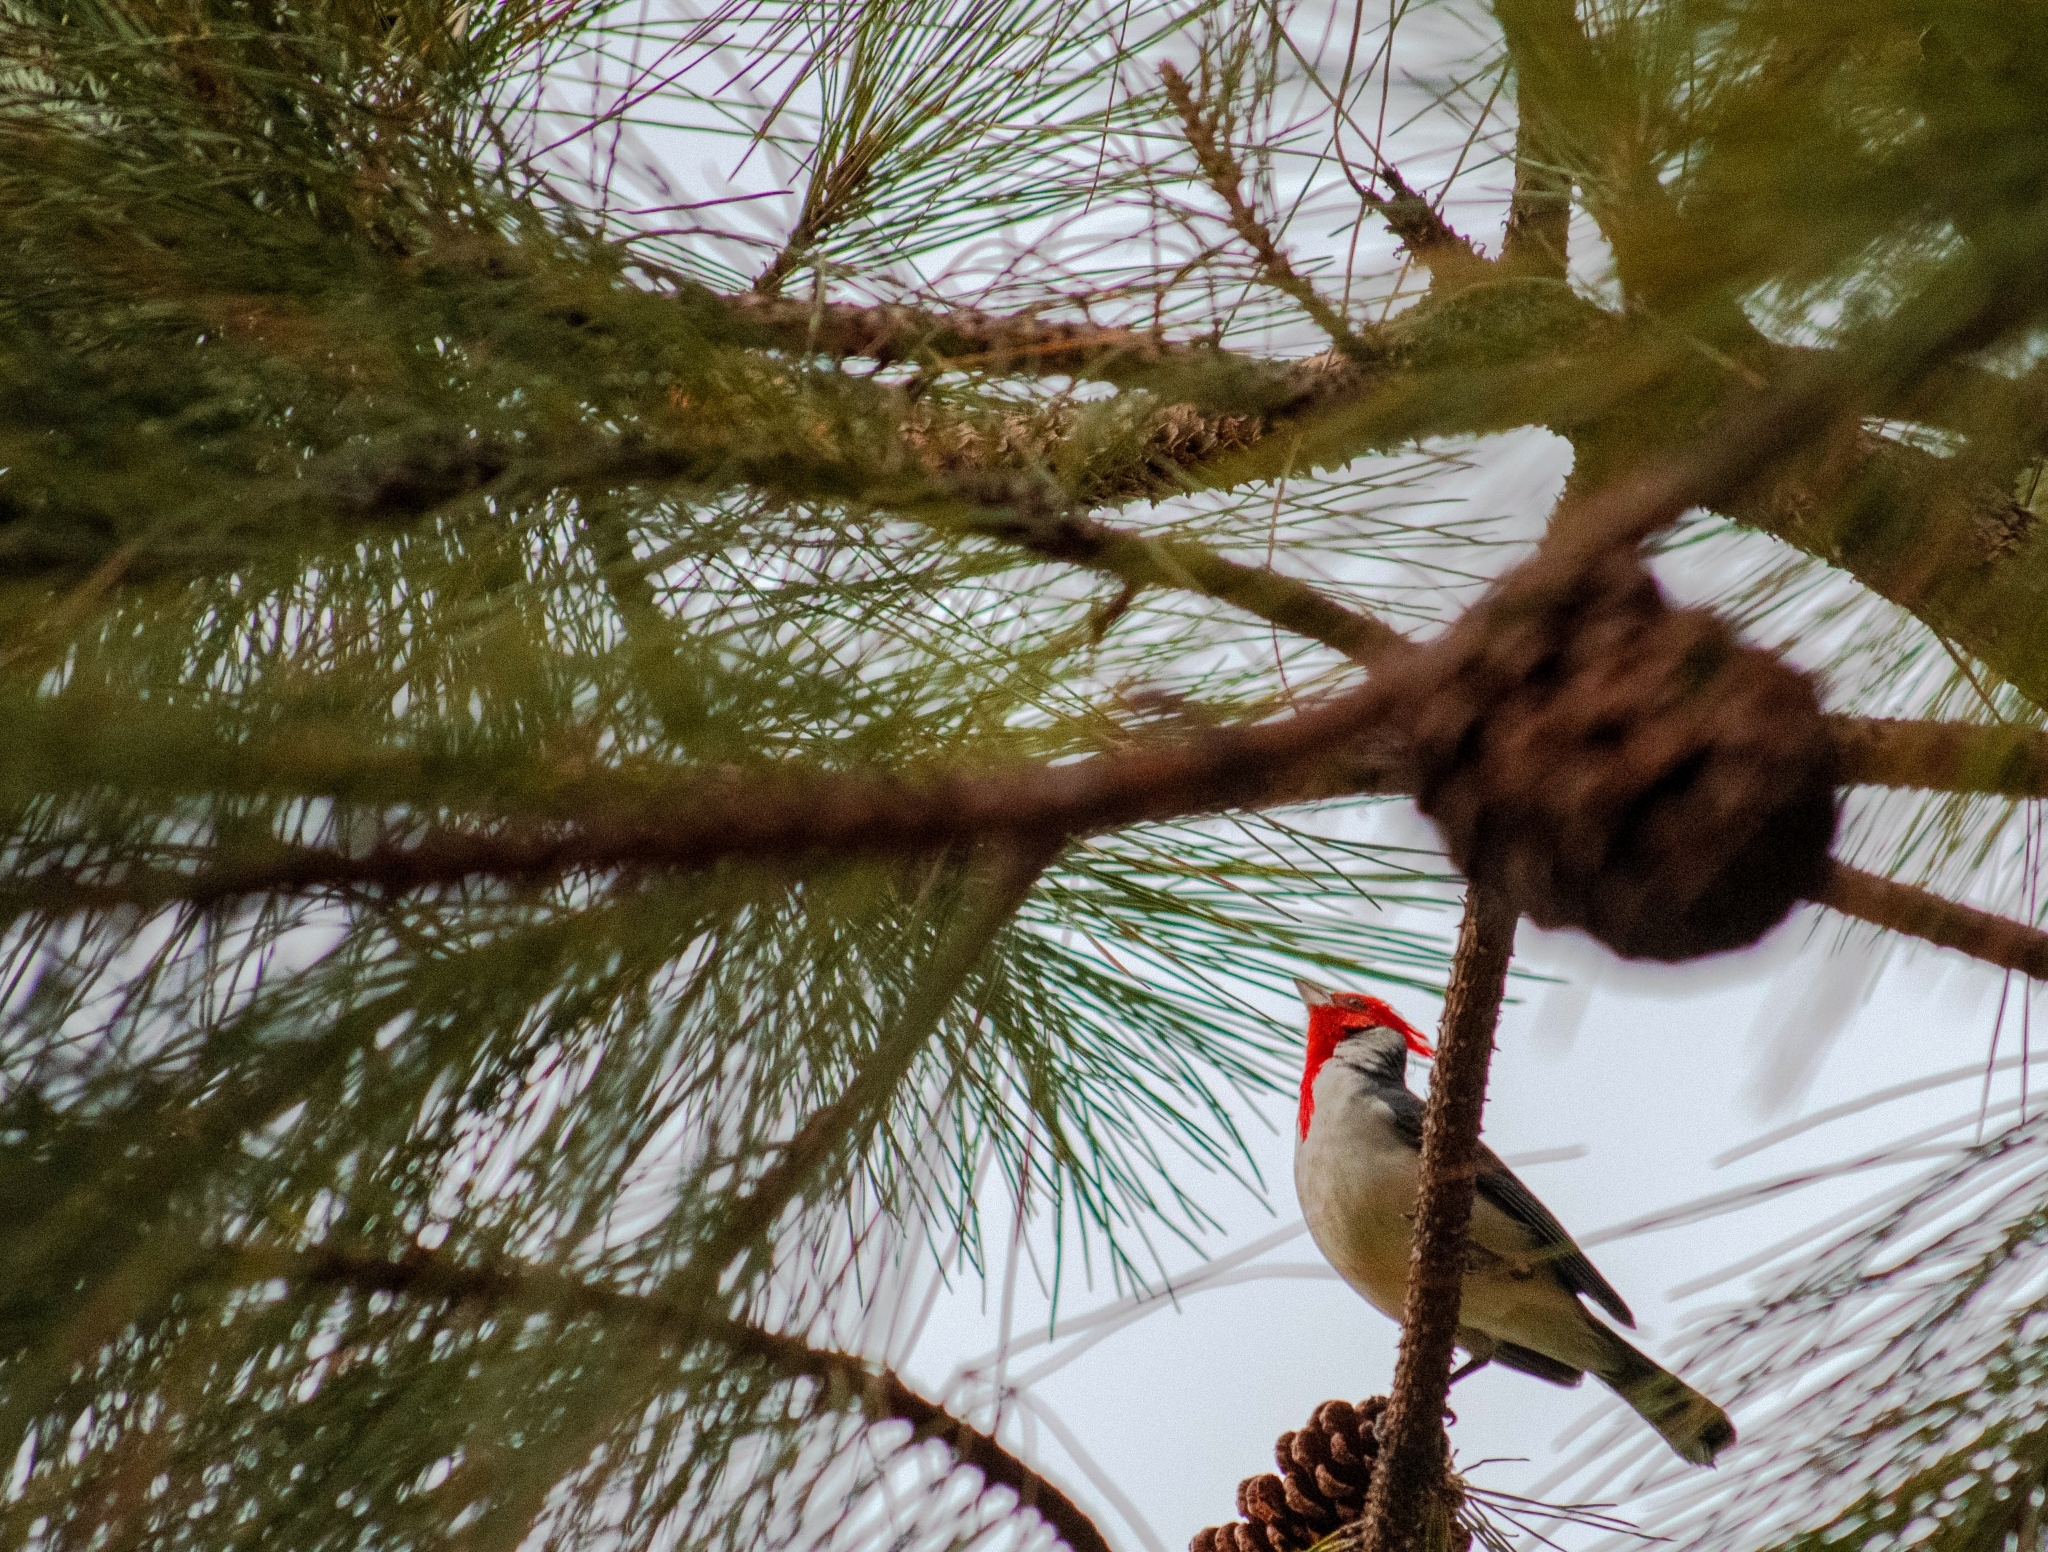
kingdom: Animalia
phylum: Chordata
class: Aves
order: Passeriformes
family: Thraupidae
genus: Paroaria
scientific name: Paroaria coronata
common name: Red-crested cardinal
